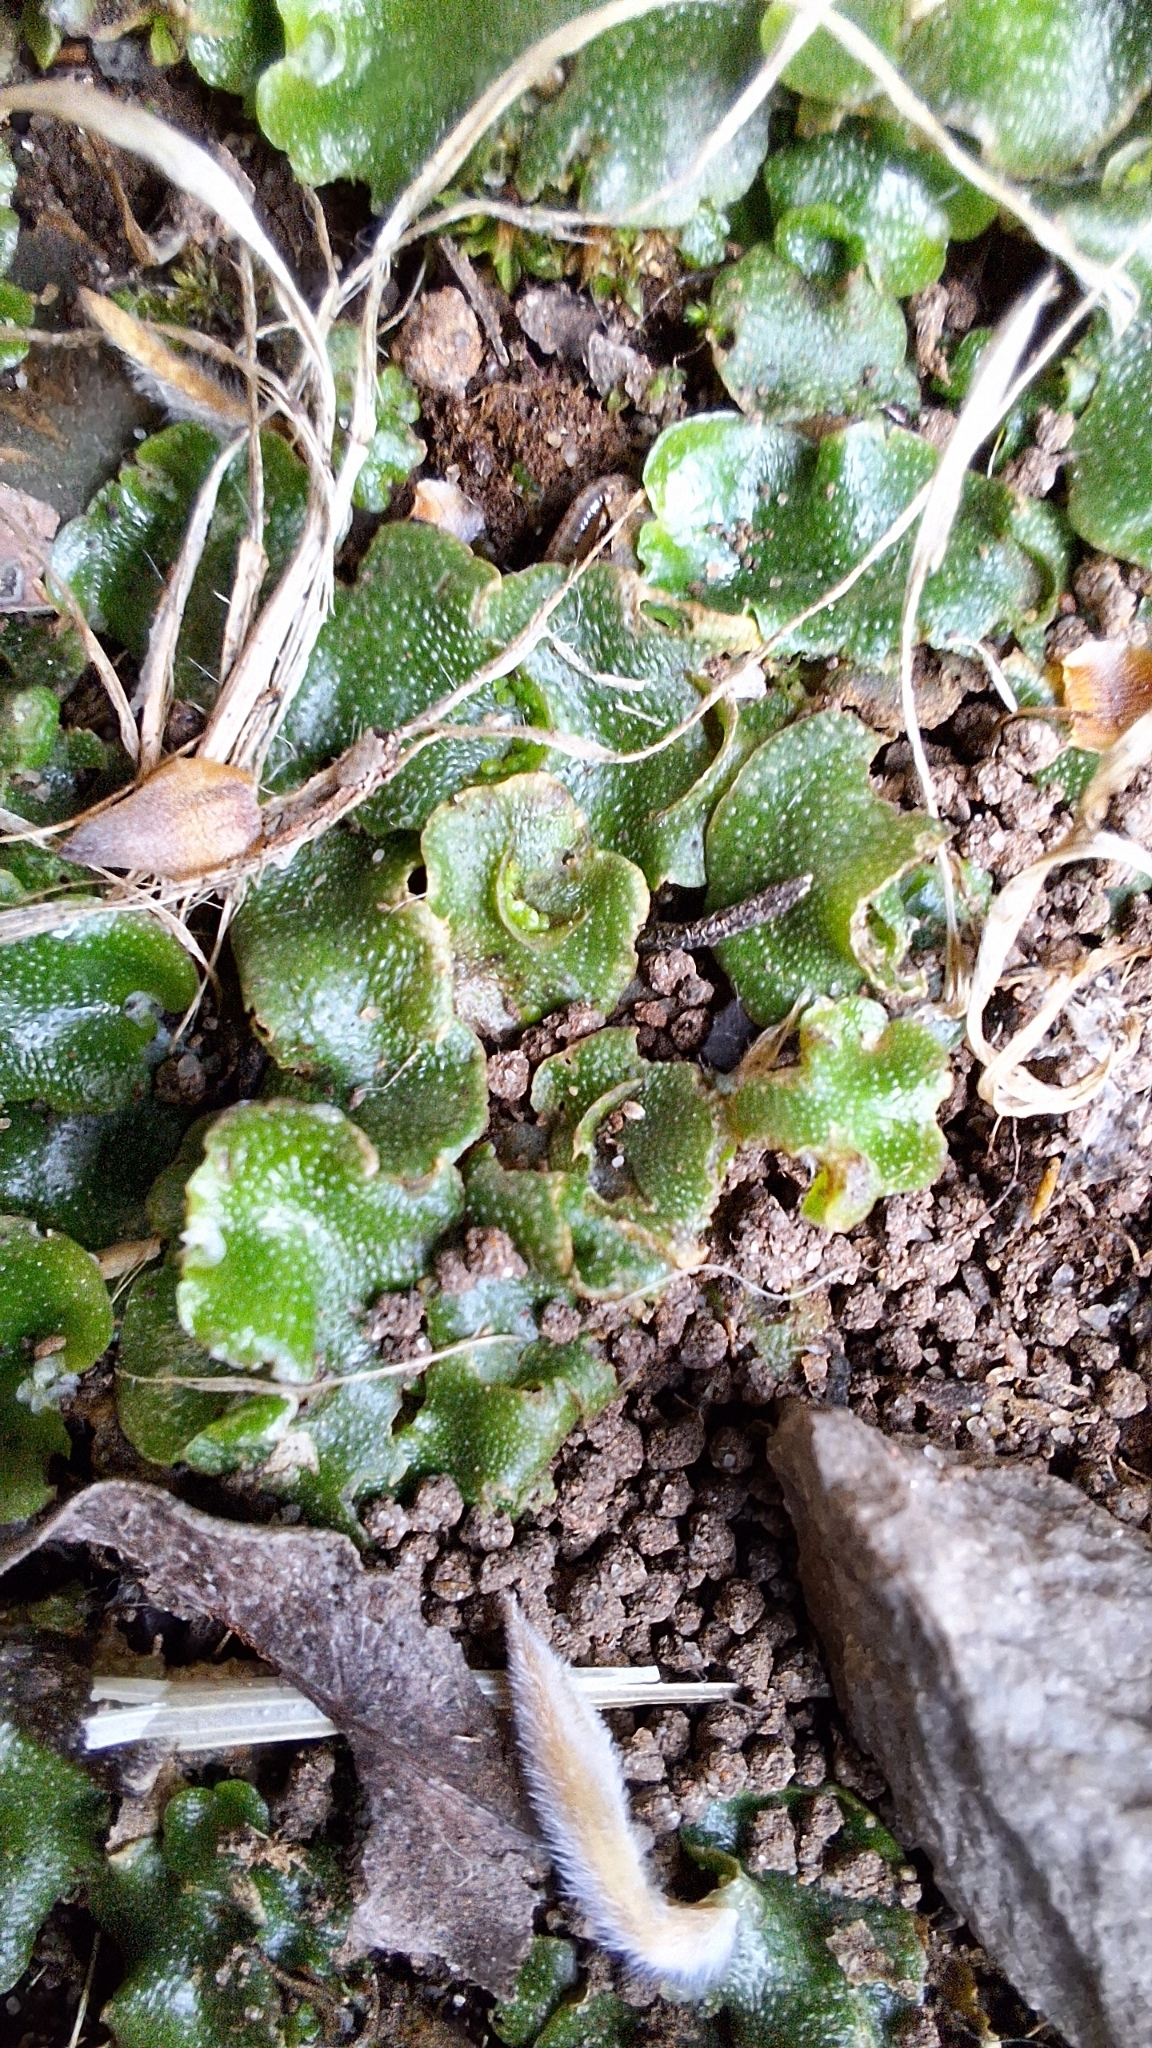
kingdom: Plantae
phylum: Marchantiophyta
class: Marchantiopsida
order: Lunulariales
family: Lunulariaceae
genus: Lunularia
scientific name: Lunularia cruciata
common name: Crescent-cup liverwort
